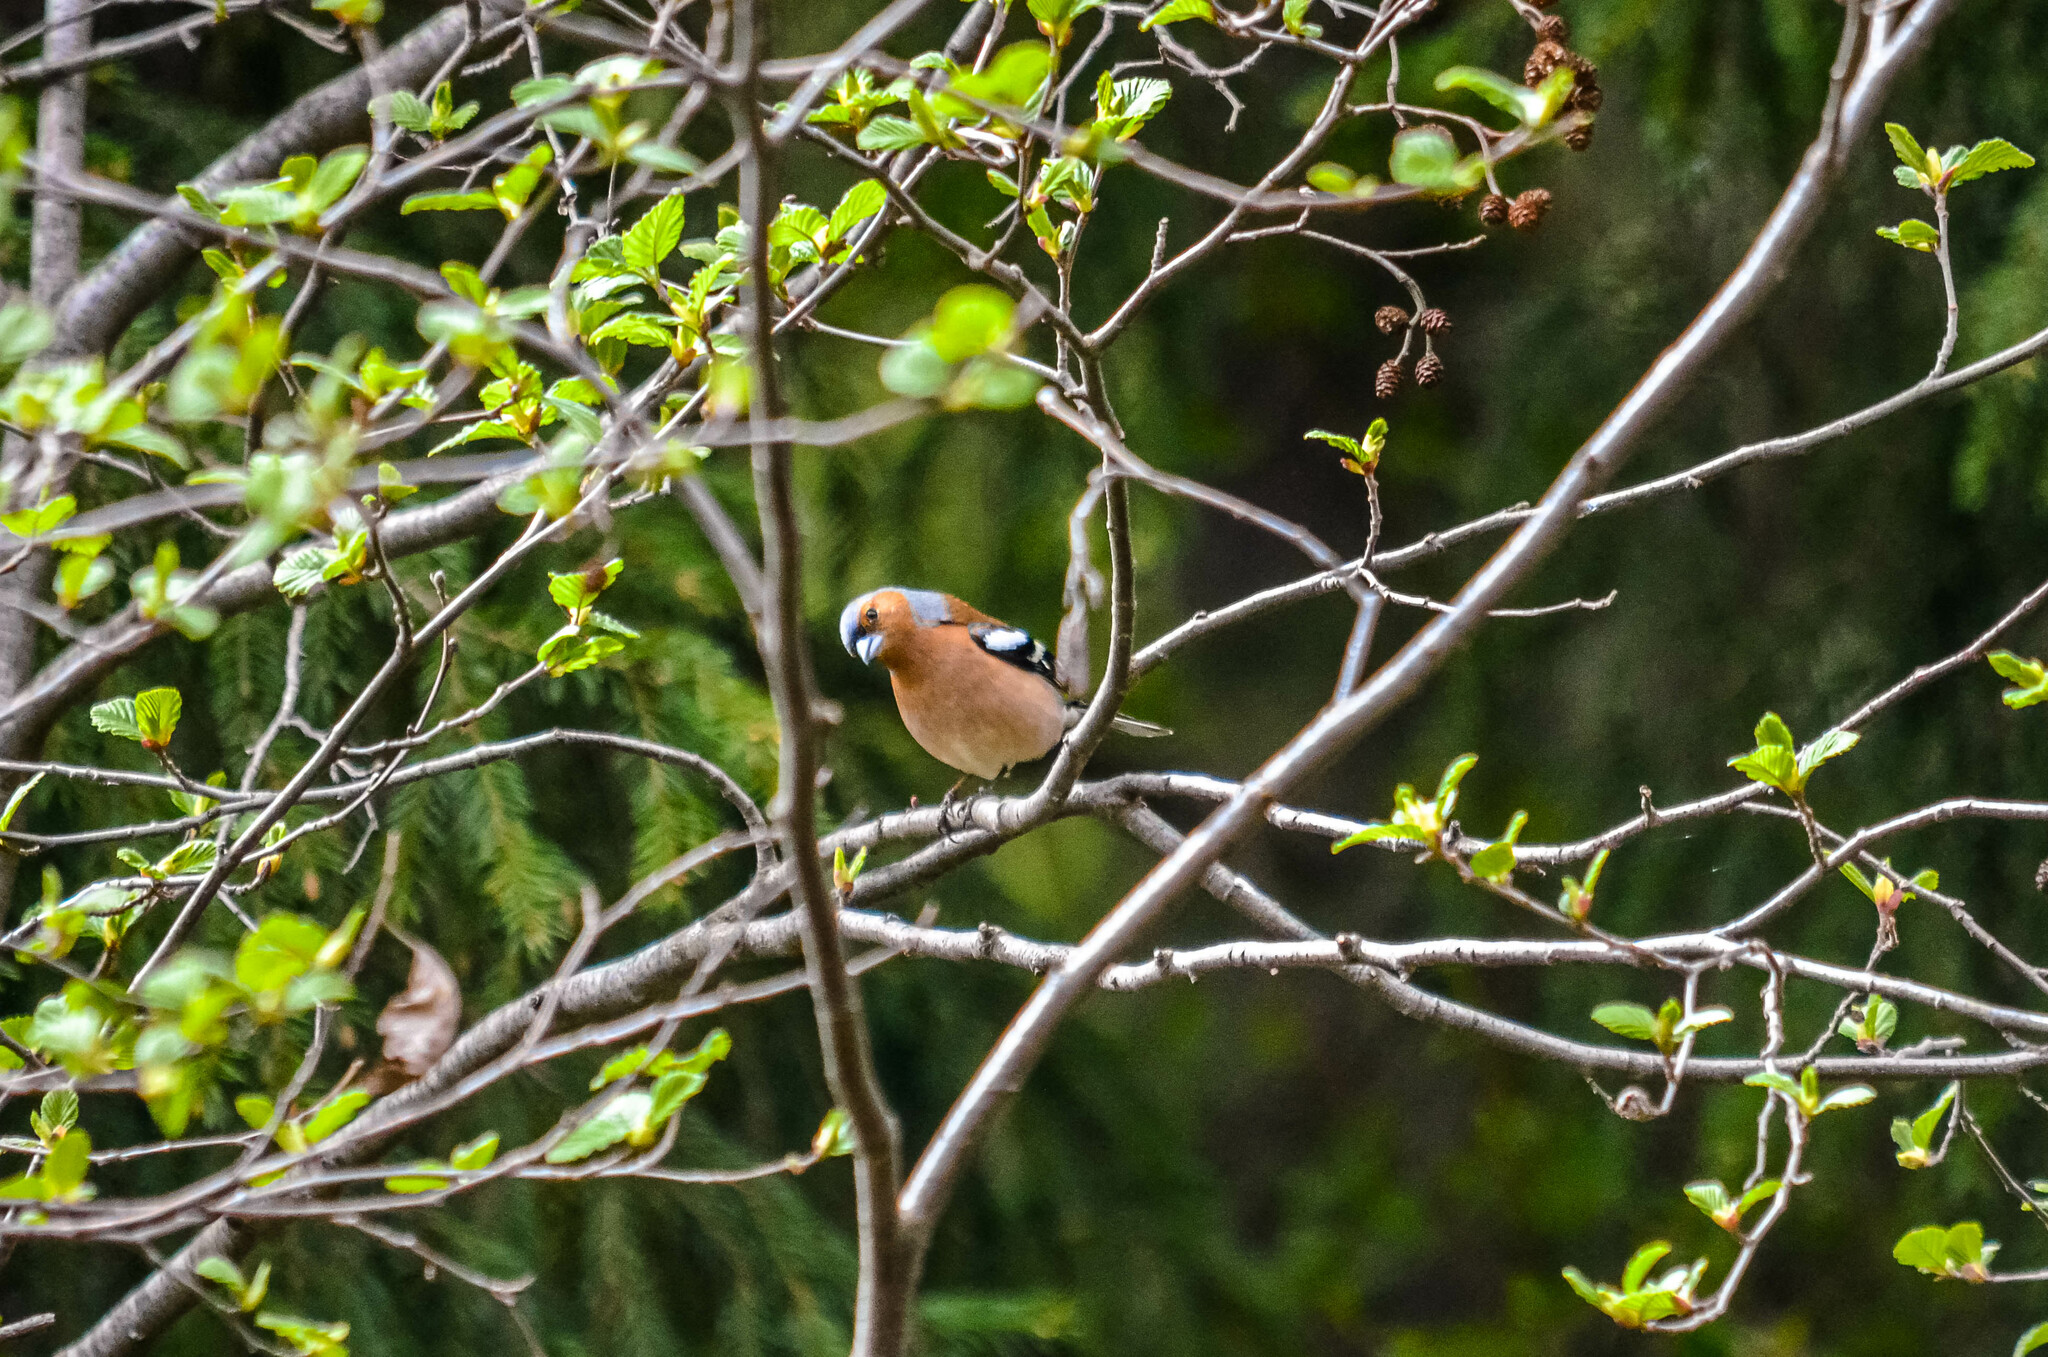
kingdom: Animalia
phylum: Chordata
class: Aves
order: Passeriformes
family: Fringillidae
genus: Fringilla
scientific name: Fringilla coelebs
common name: Common chaffinch
